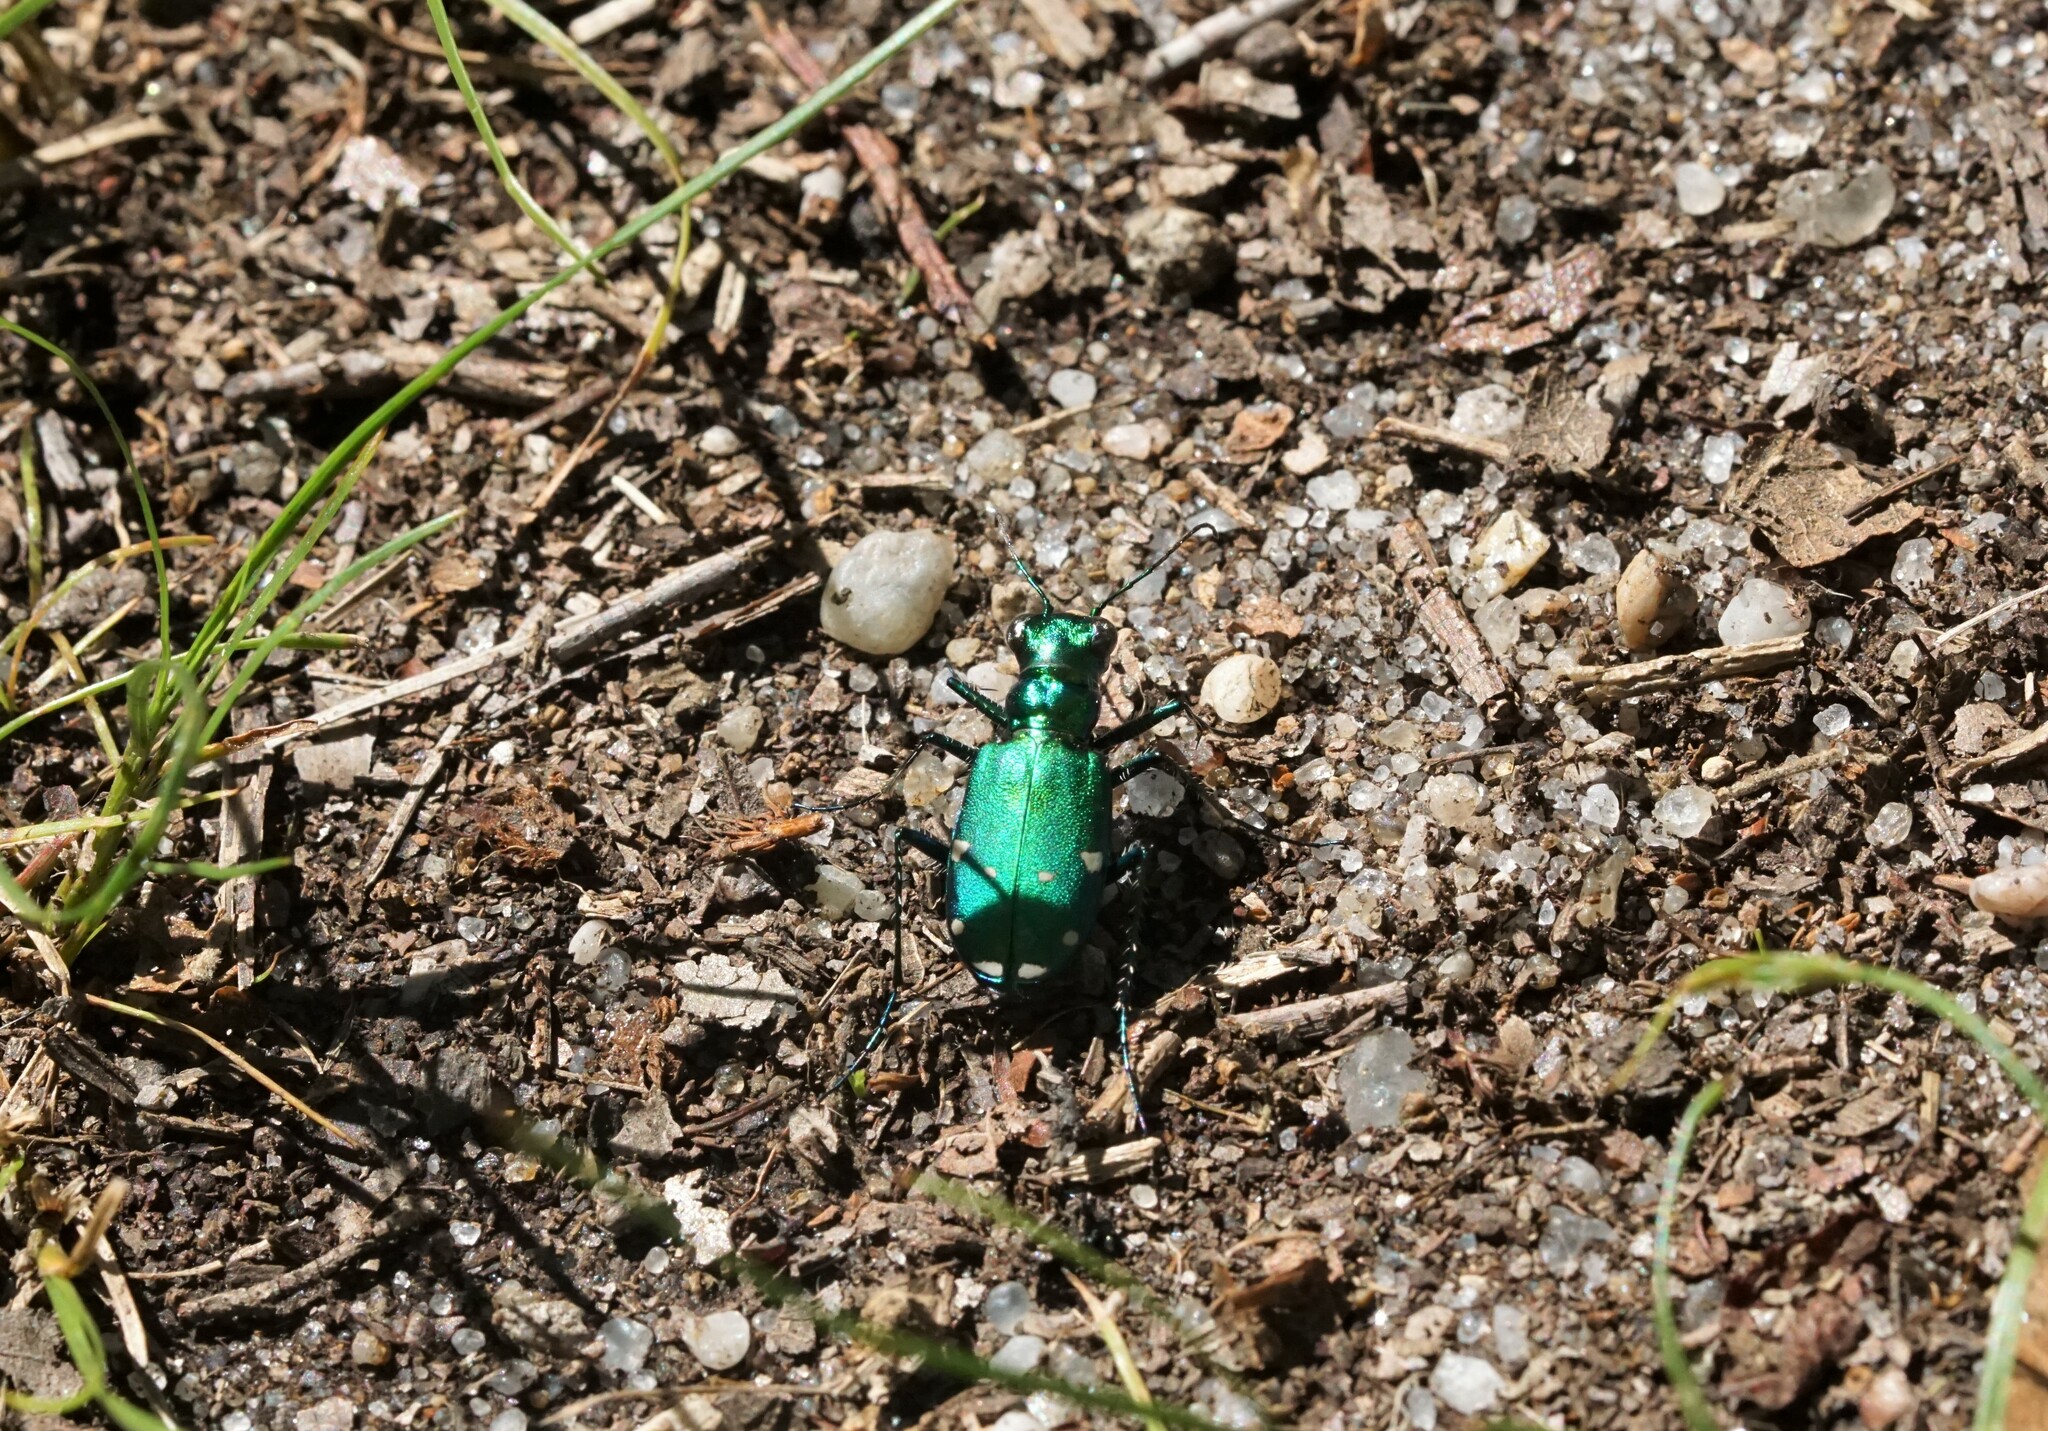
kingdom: Animalia
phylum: Arthropoda
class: Insecta
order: Coleoptera
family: Carabidae
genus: Cicindela
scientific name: Cicindela sexguttata
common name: Six-spotted tiger beetle
